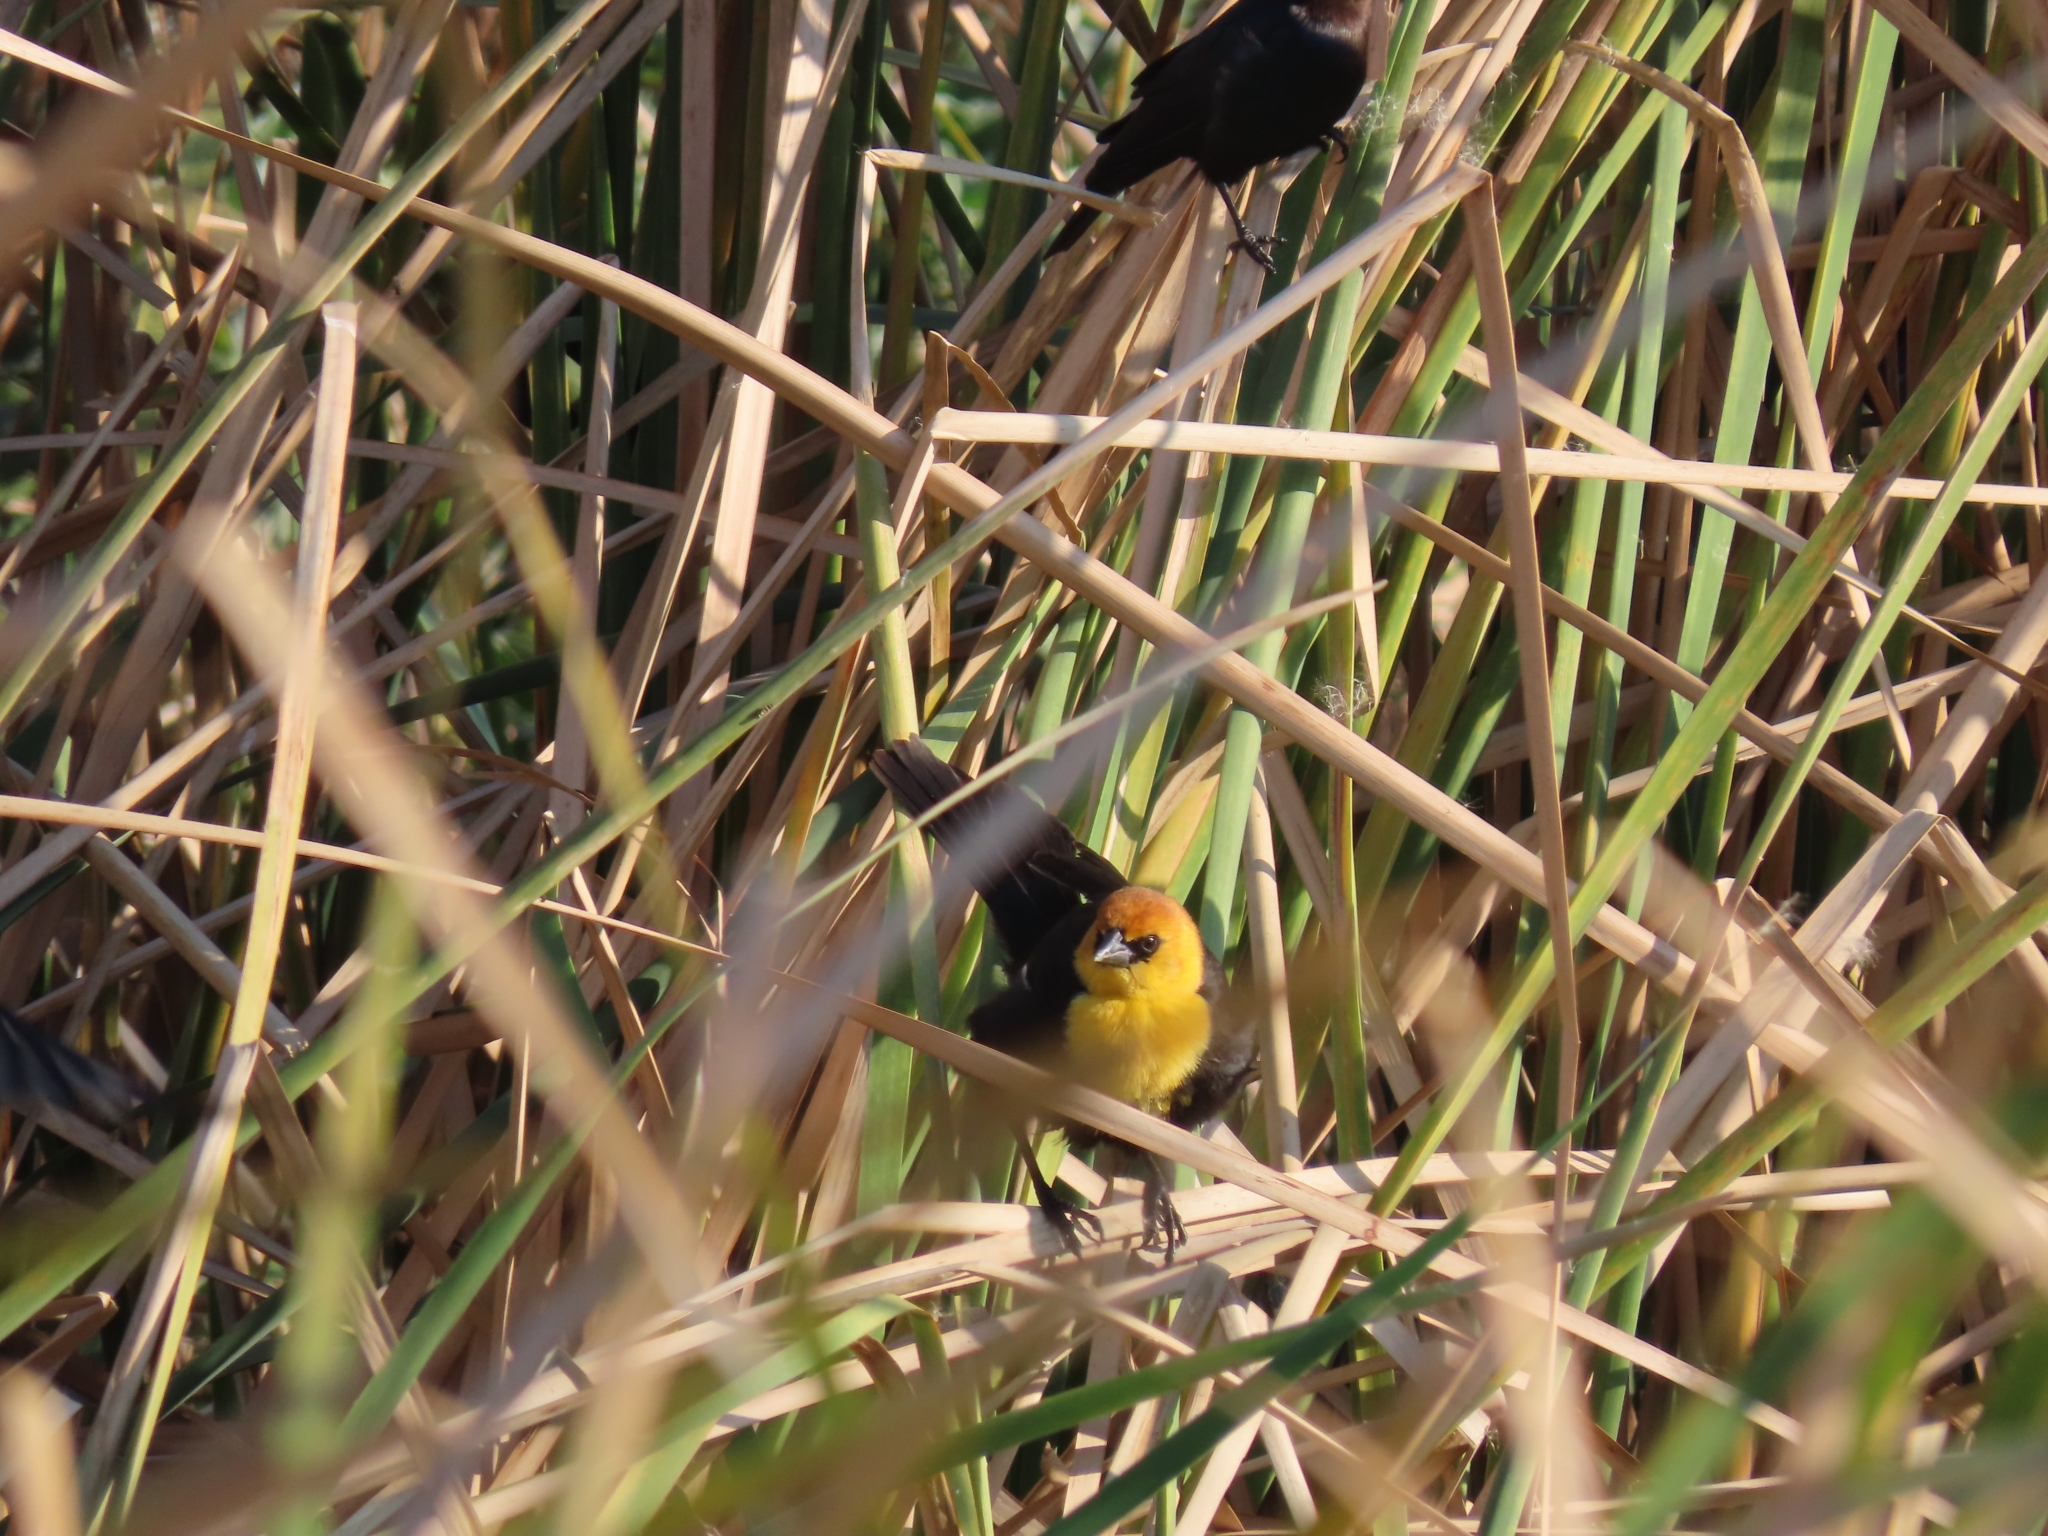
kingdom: Animalia
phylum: Chordata
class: Aves
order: Passeriformes
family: Icteridae
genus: Xanthocephalus
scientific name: Xanthocephalus xanthocephalus
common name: Yellow-headed blackbird
